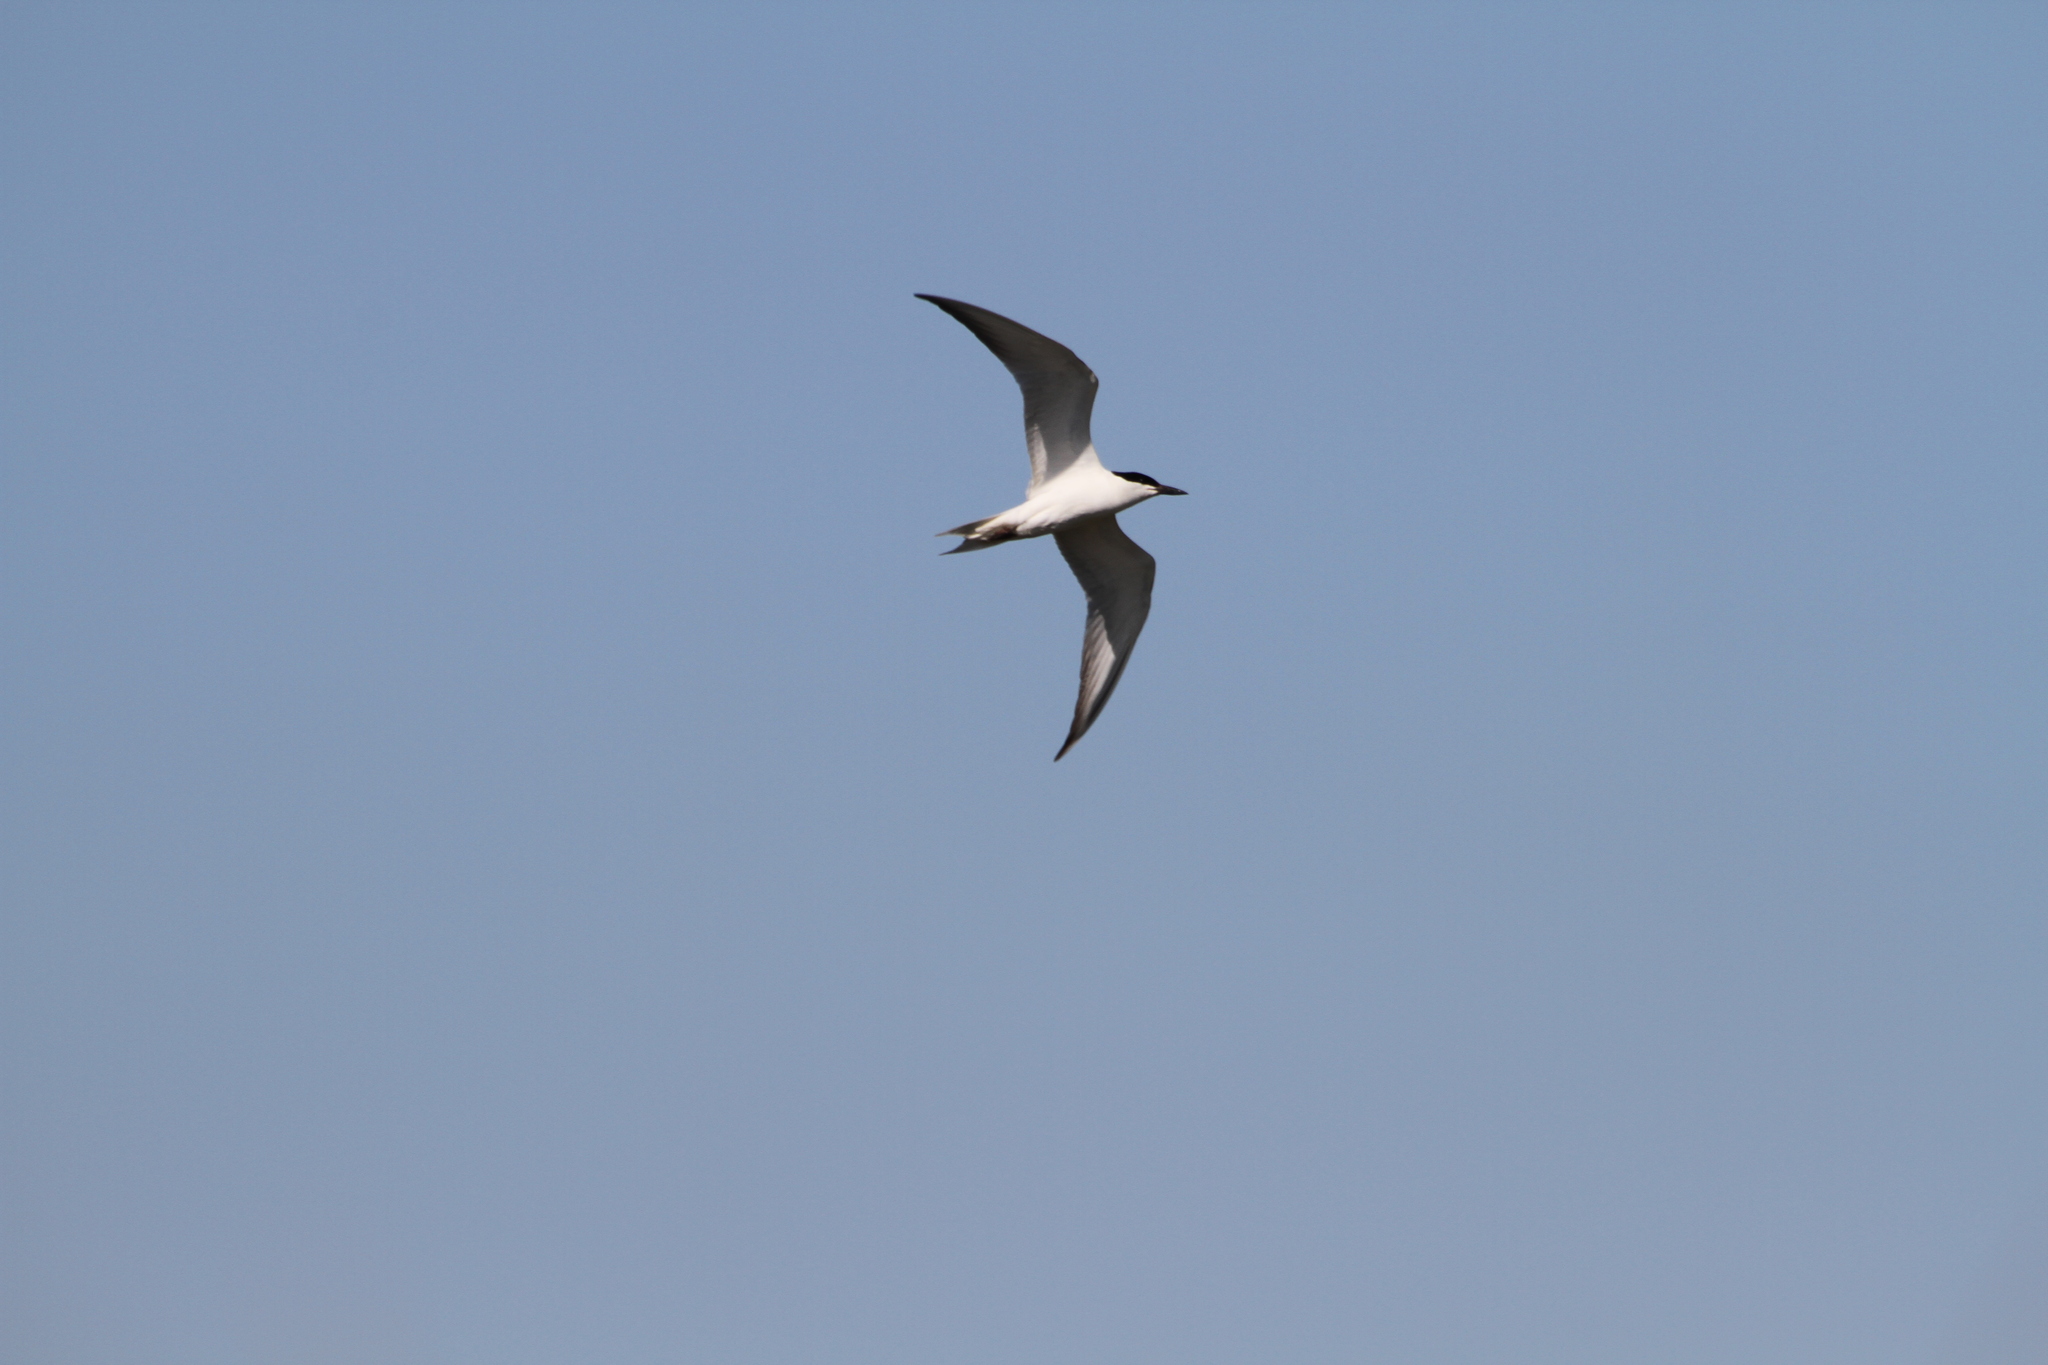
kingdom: Animalia
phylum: Chordata
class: Aves
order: Charadriiformes
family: Laridae
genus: Gelochelidon
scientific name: Gelochelidon nilotica
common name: Gull-billed tern
